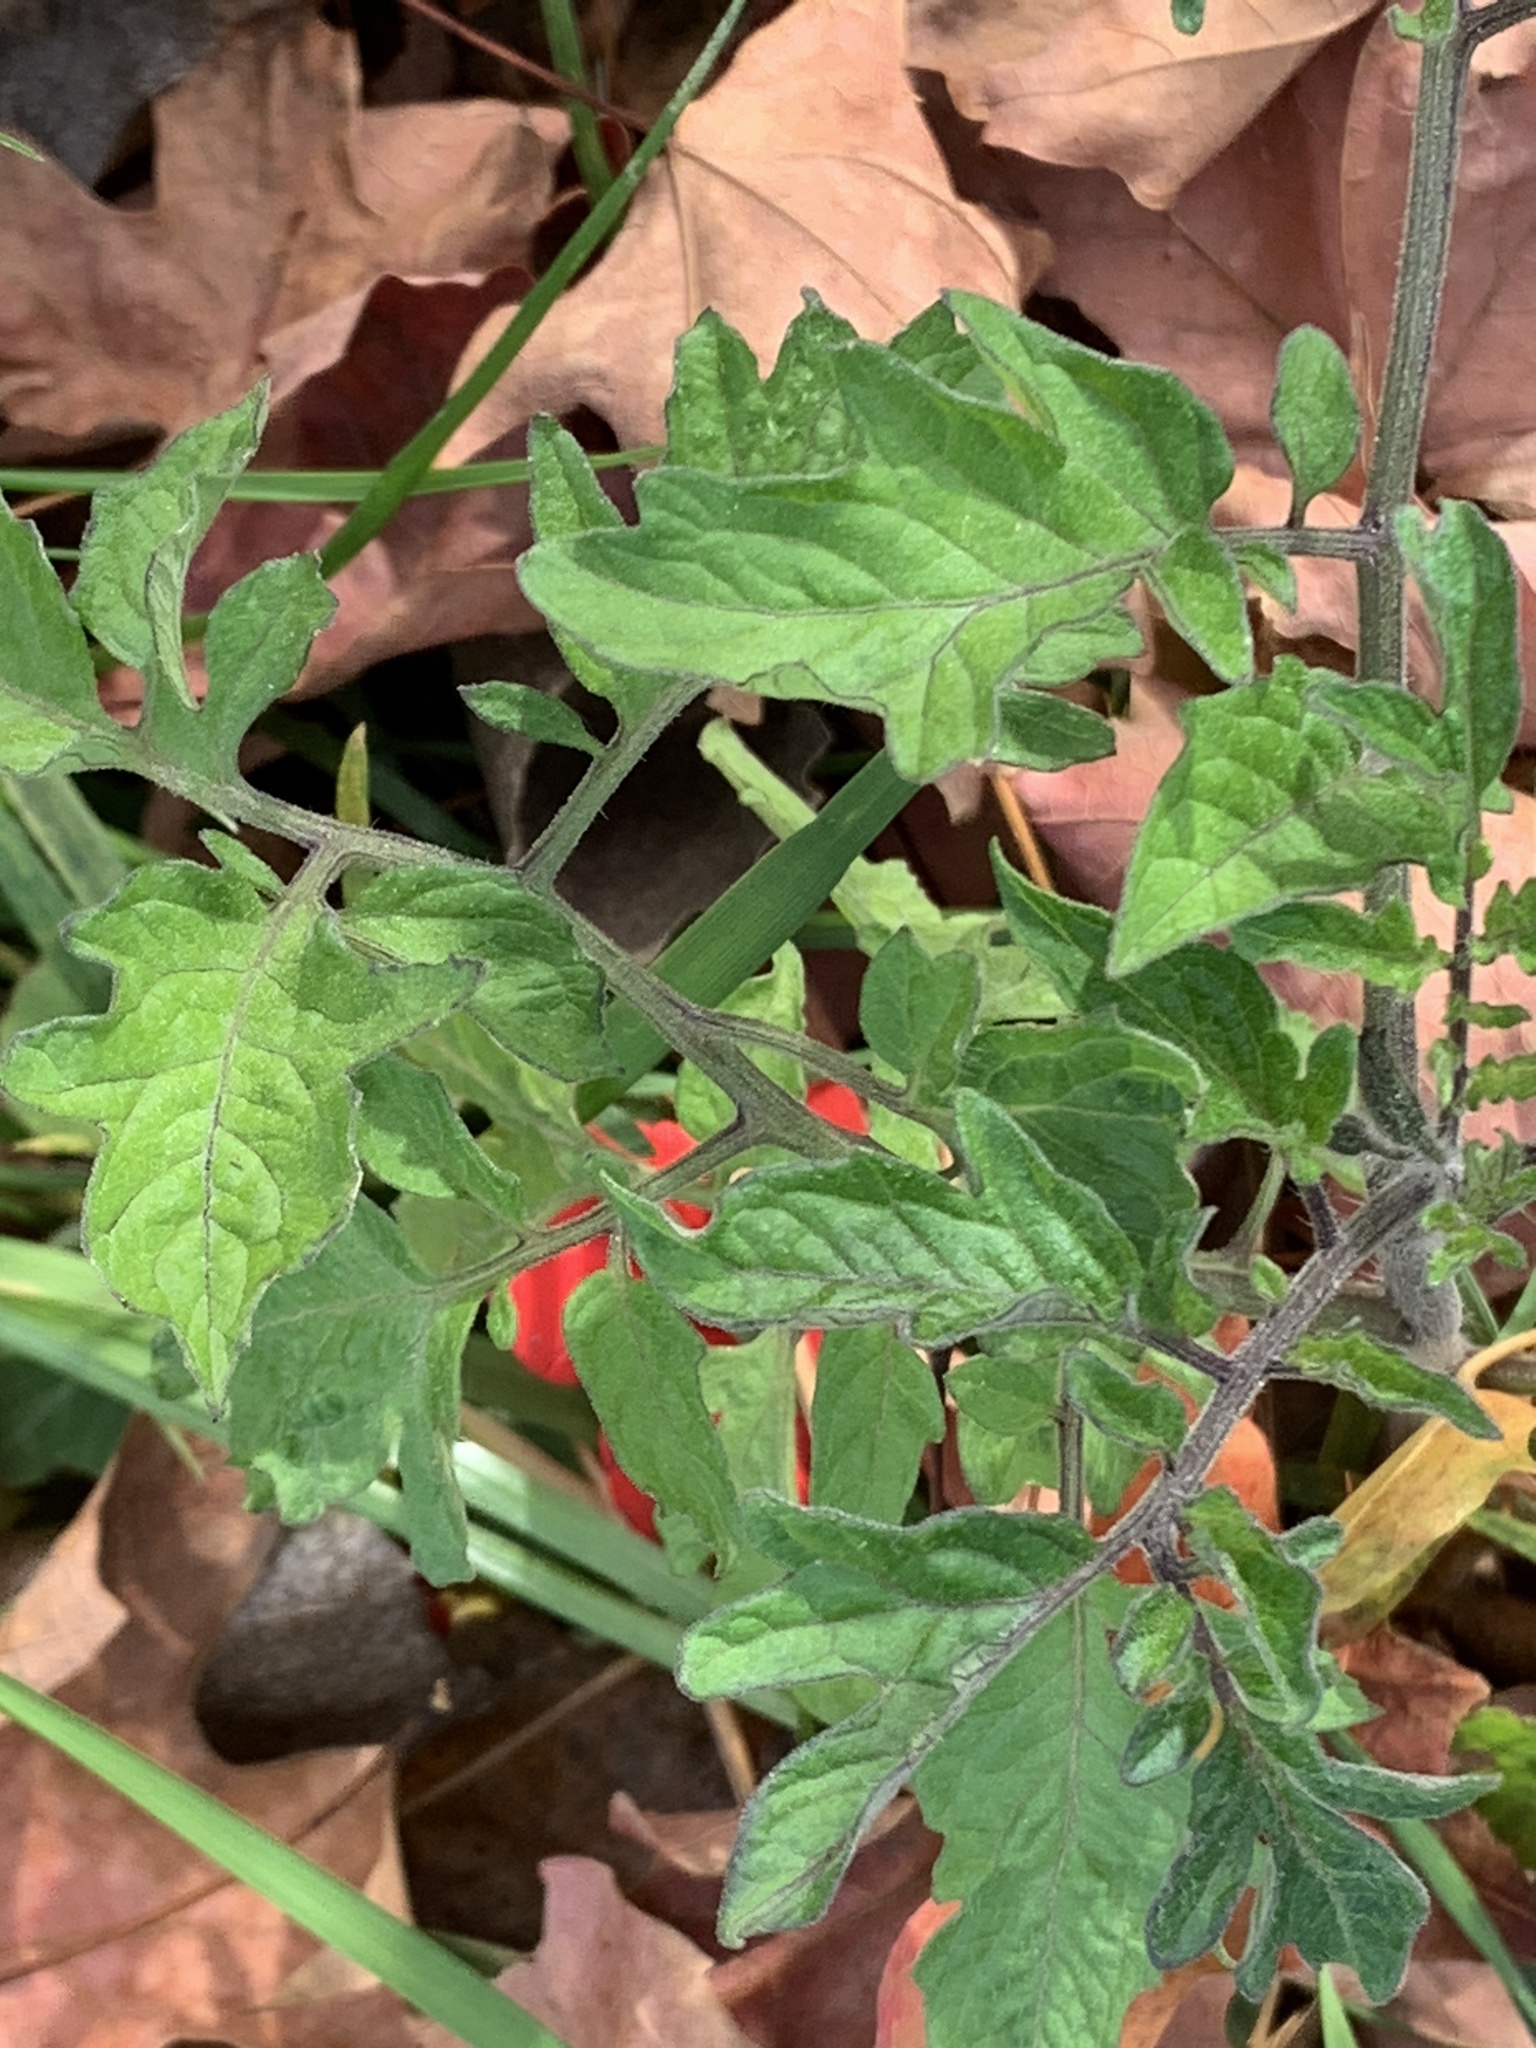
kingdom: Plantae
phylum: Tracheophyta
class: Magnoliopsida
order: Solanales
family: Solanaceae
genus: Solanum
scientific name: Solanum lycopersicum
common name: Garden tomato
